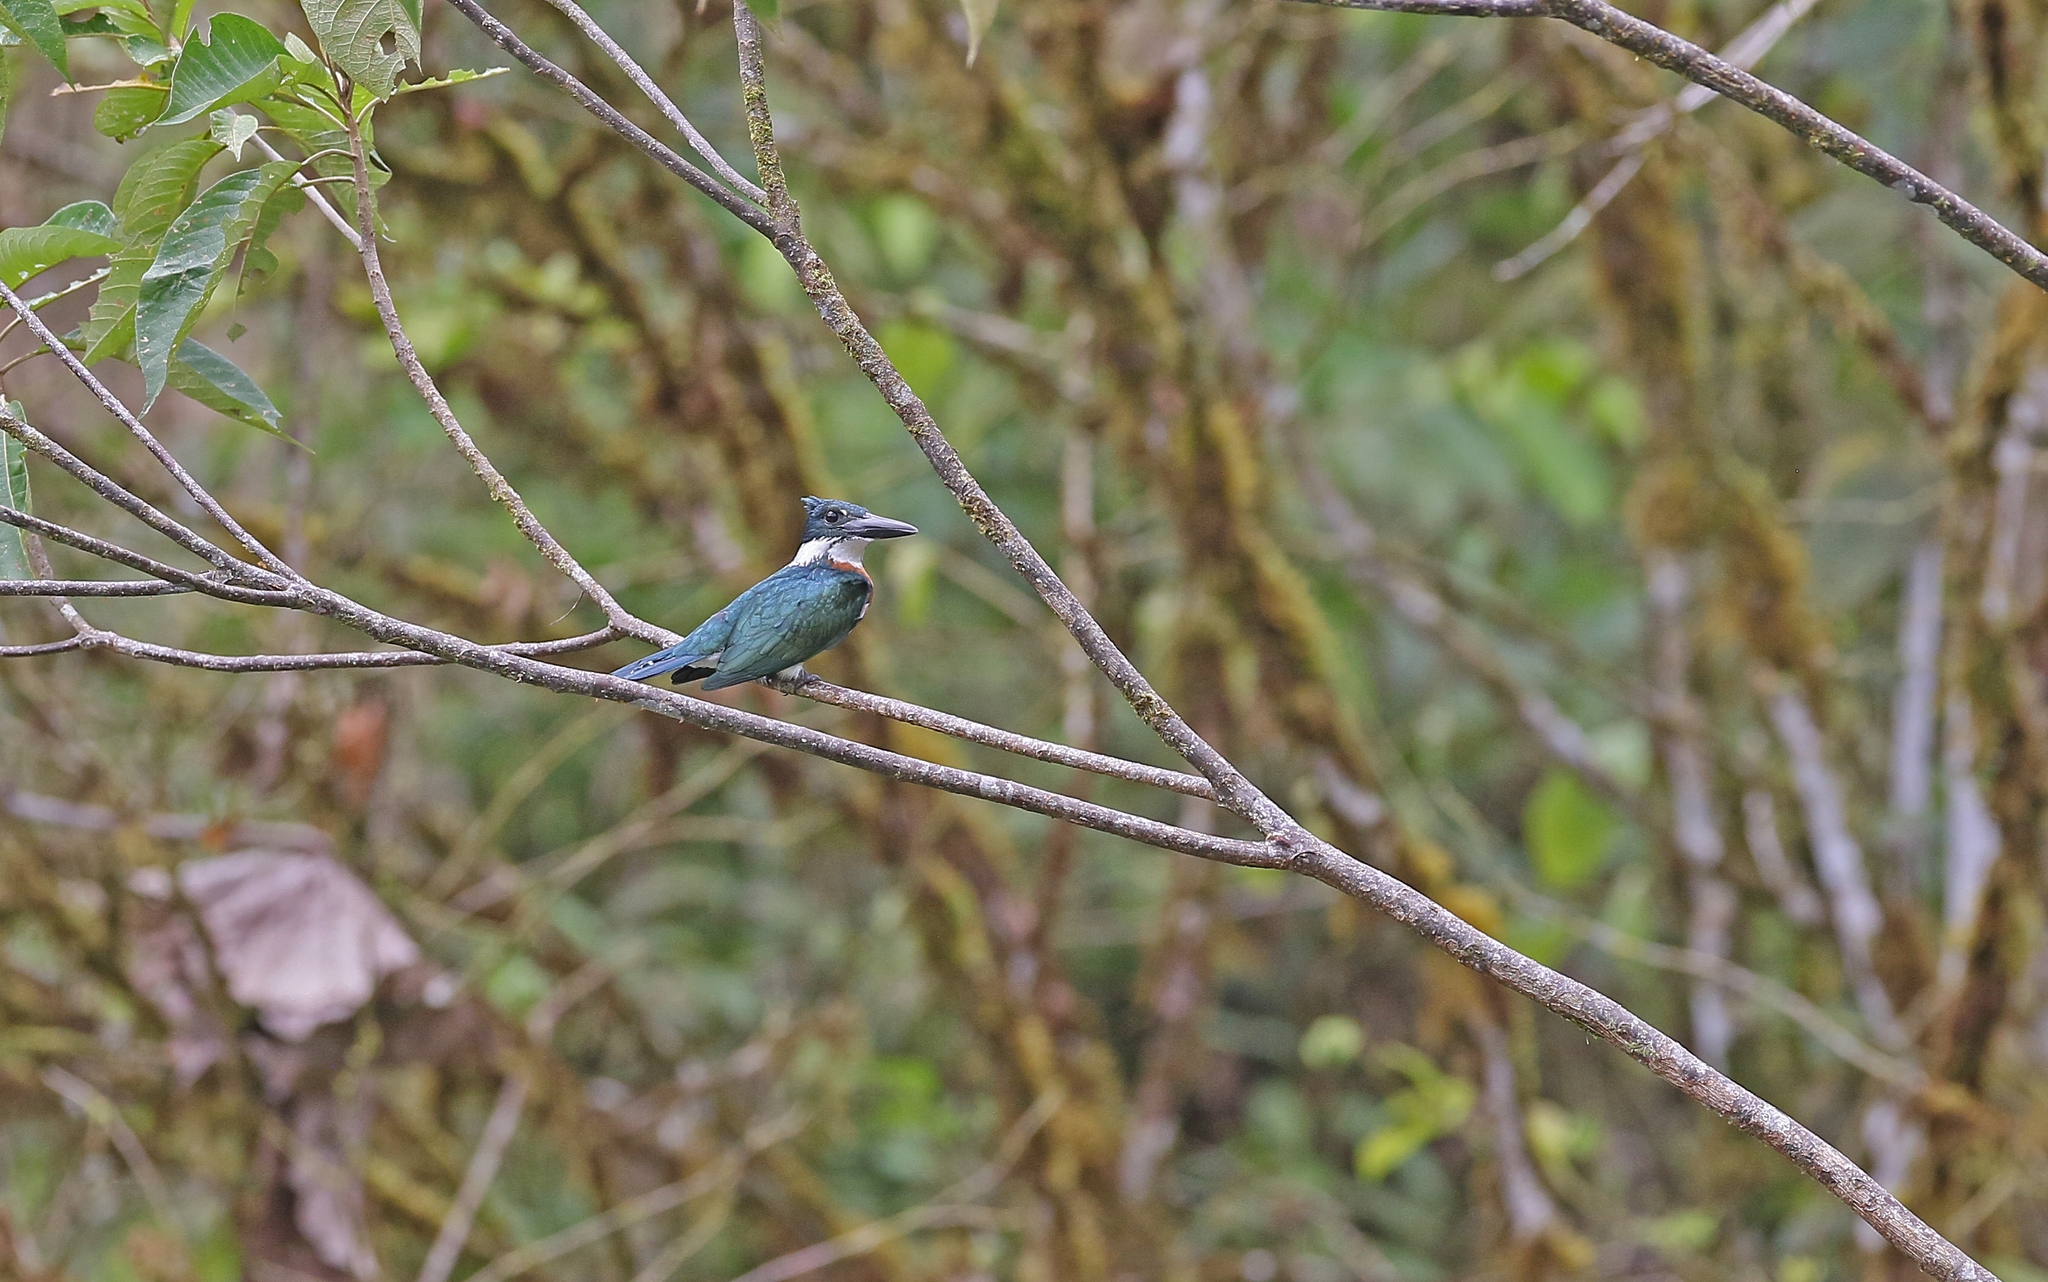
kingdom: Animalia
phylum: Chordata
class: Aves
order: Coraciiformes
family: Alcedinidae
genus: Chloroceryle
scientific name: Chloroceryle amazona
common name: Amazon kingfisher
